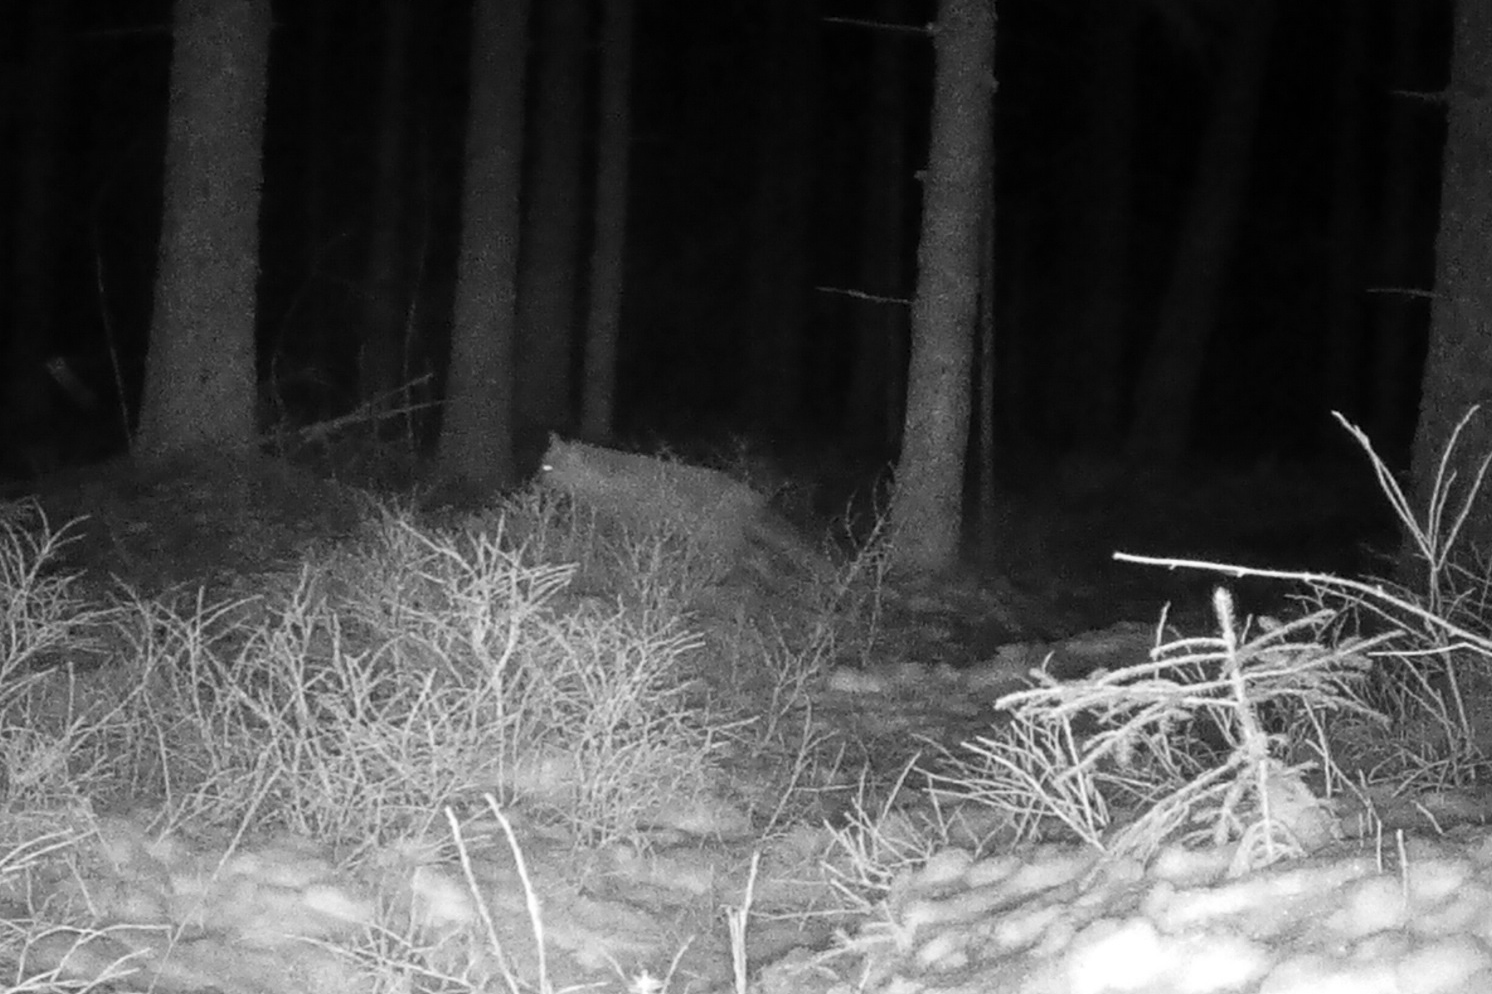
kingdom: Animalia
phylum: Chordata
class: Mammalia
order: Carnivora
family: Canidae
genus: Vulpes
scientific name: Vulpes vulpes
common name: Red fox
